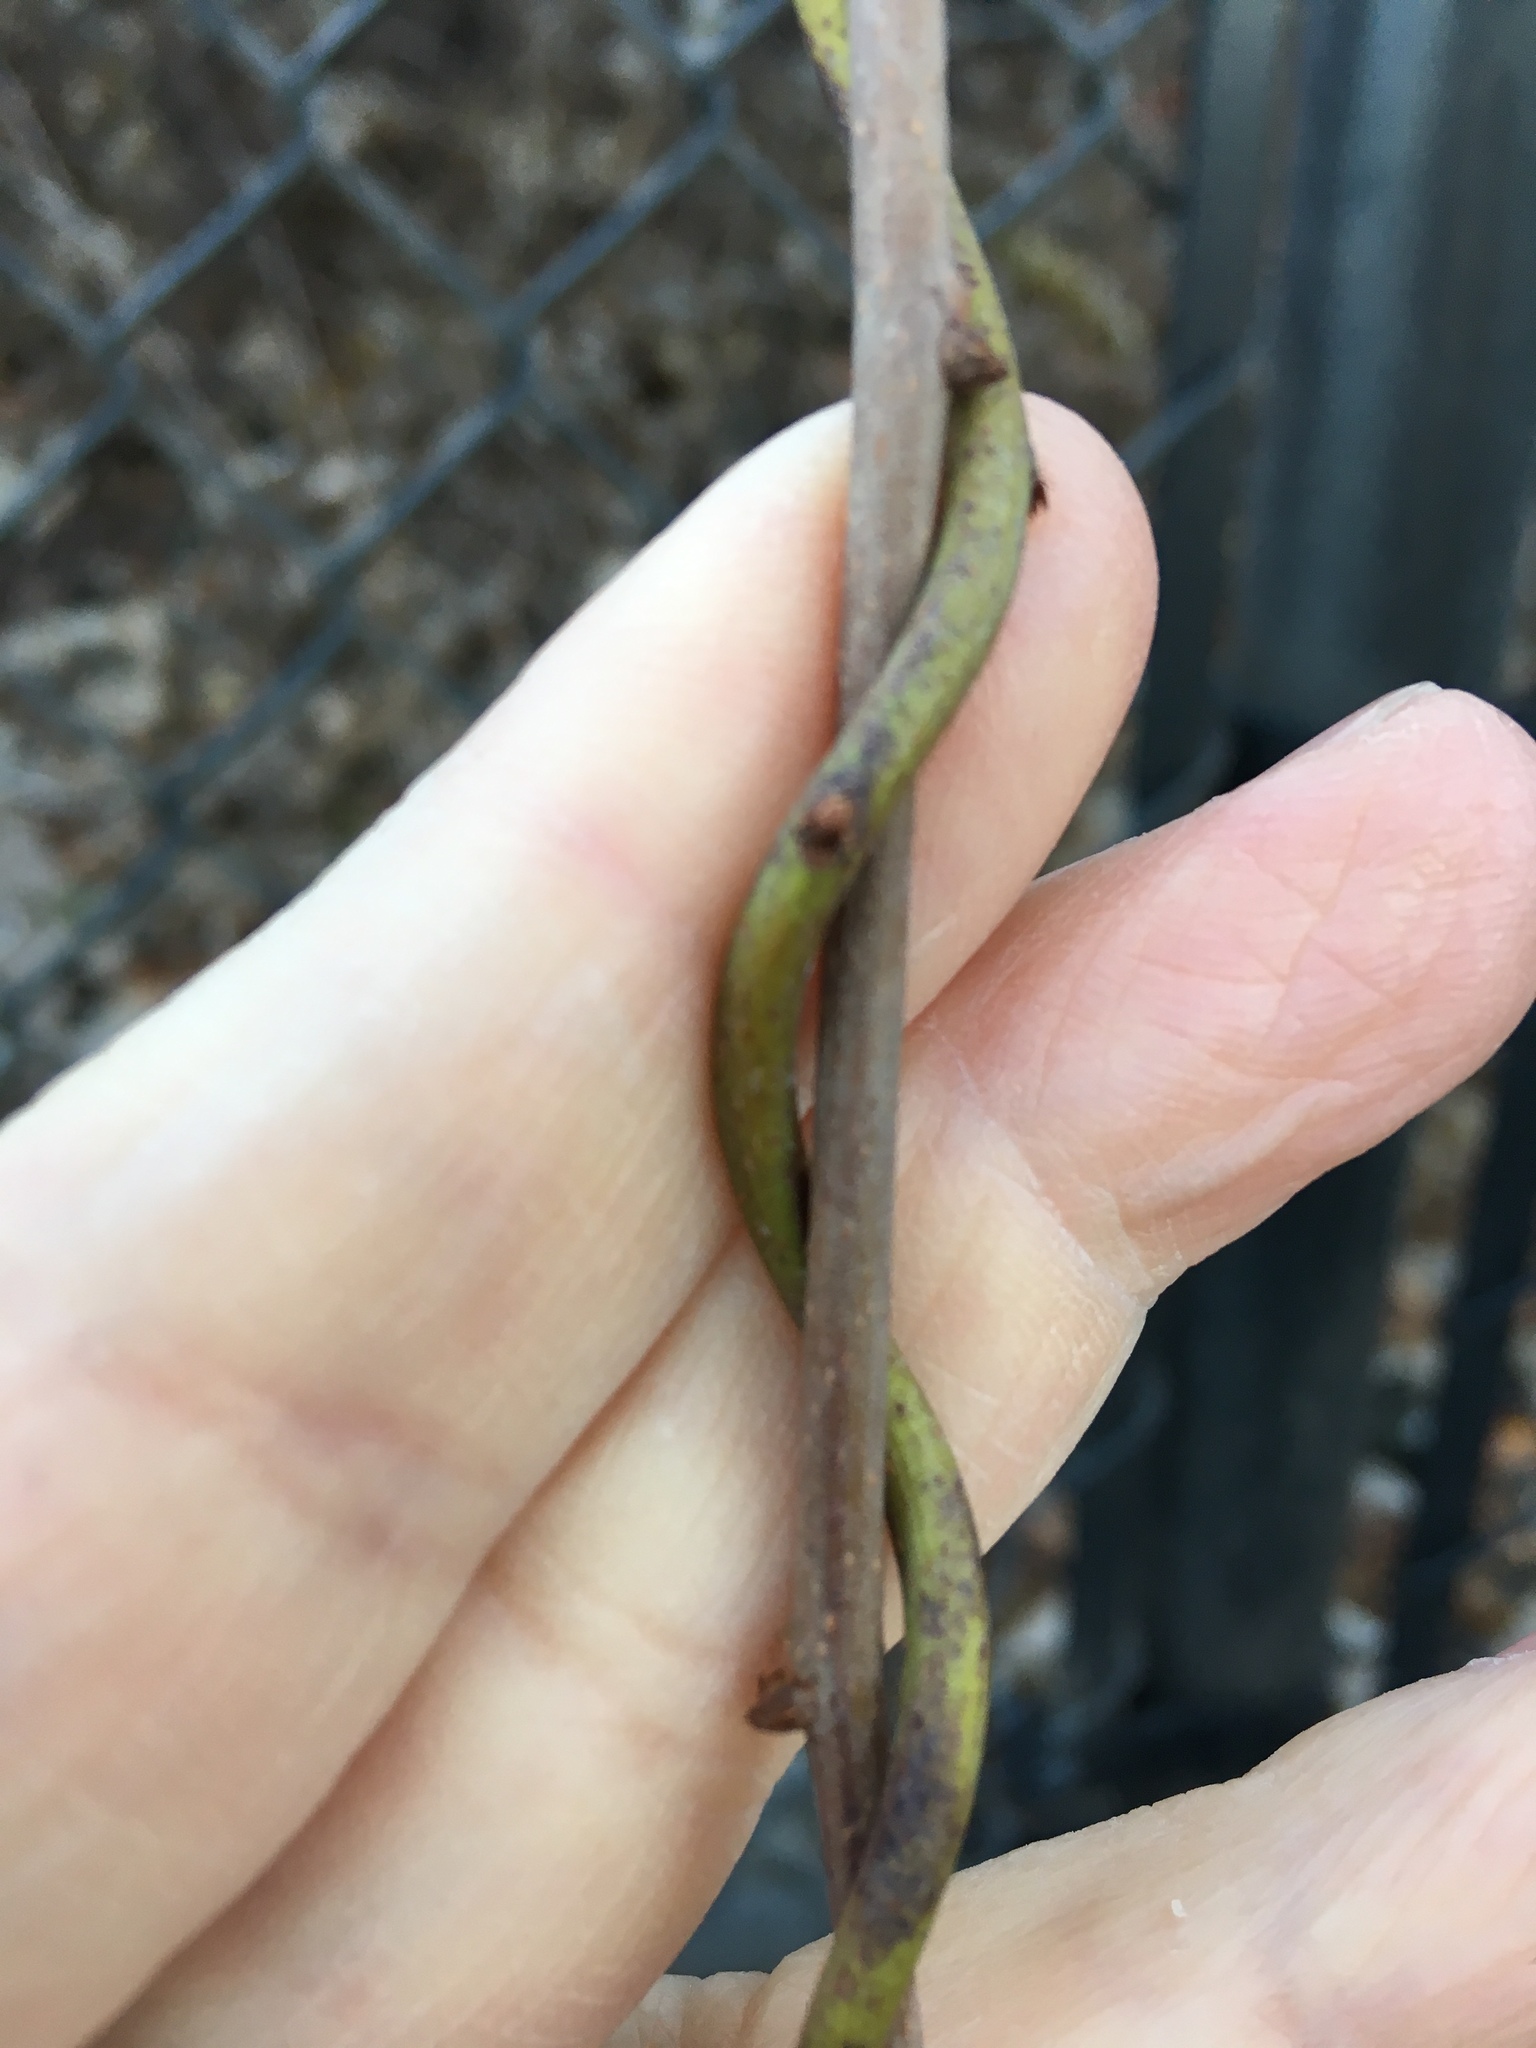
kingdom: Plantae
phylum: Tracheophyta
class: Magnoliopsida
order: Celastrales
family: Celastraceae
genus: Celastrus
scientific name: Celastrus orbiculatus
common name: Oriental bittersweet
